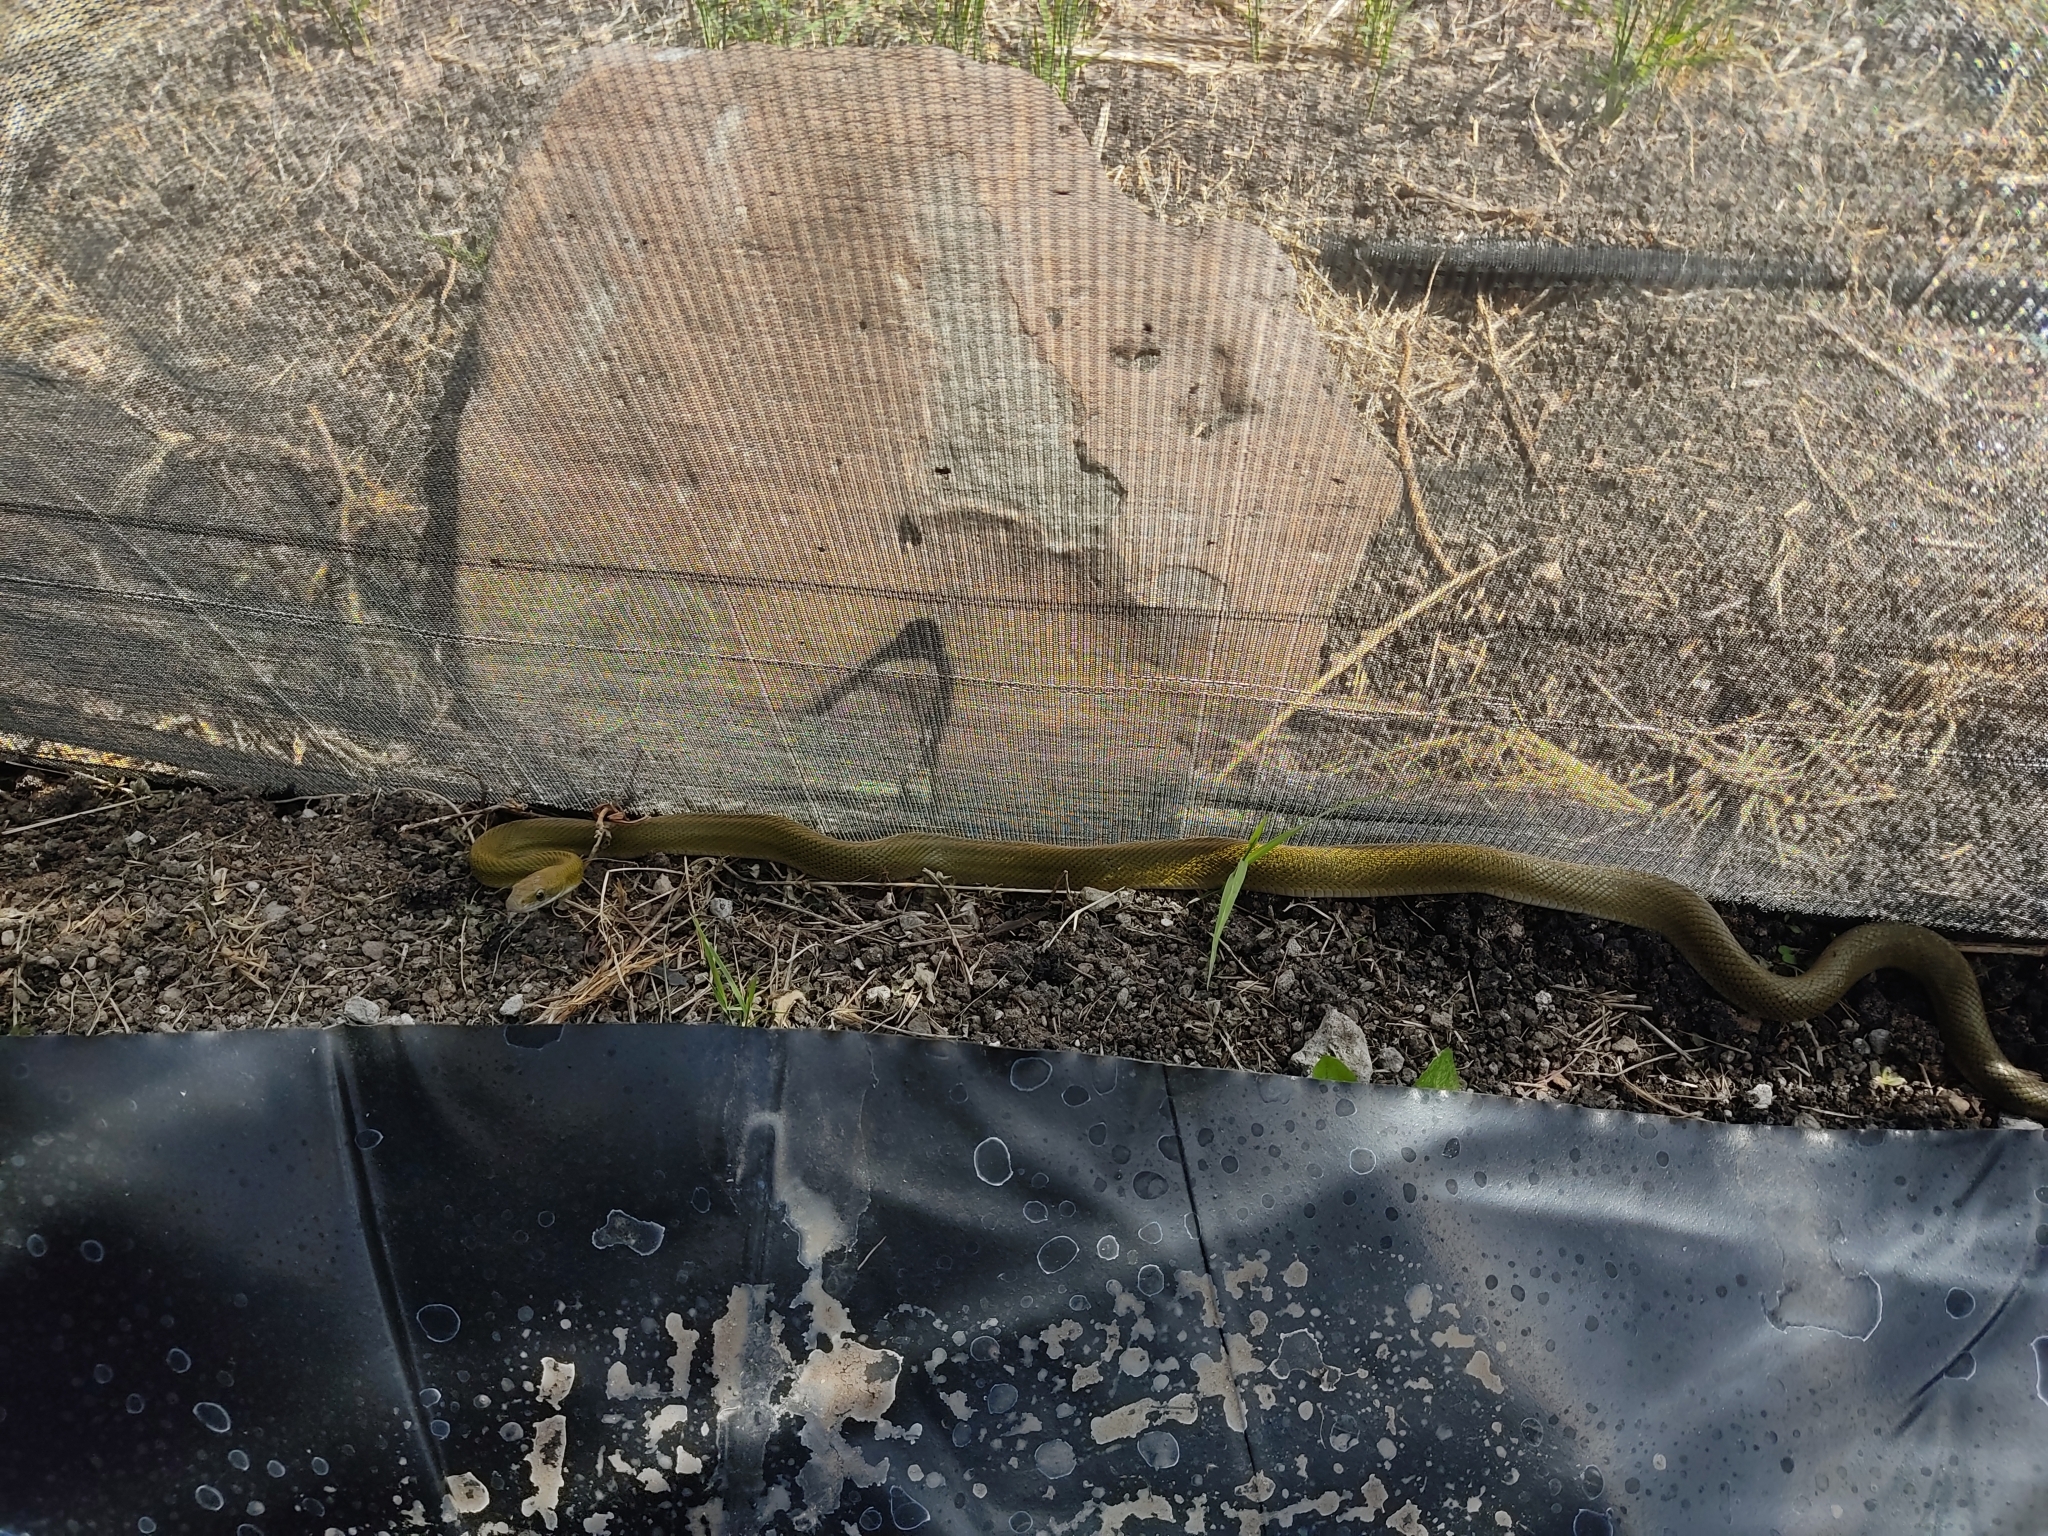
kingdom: Animalia
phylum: Chordata
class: Squamata
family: Colubridae
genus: Senticolis
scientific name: Senticolis triaspis
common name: Green rat snake
